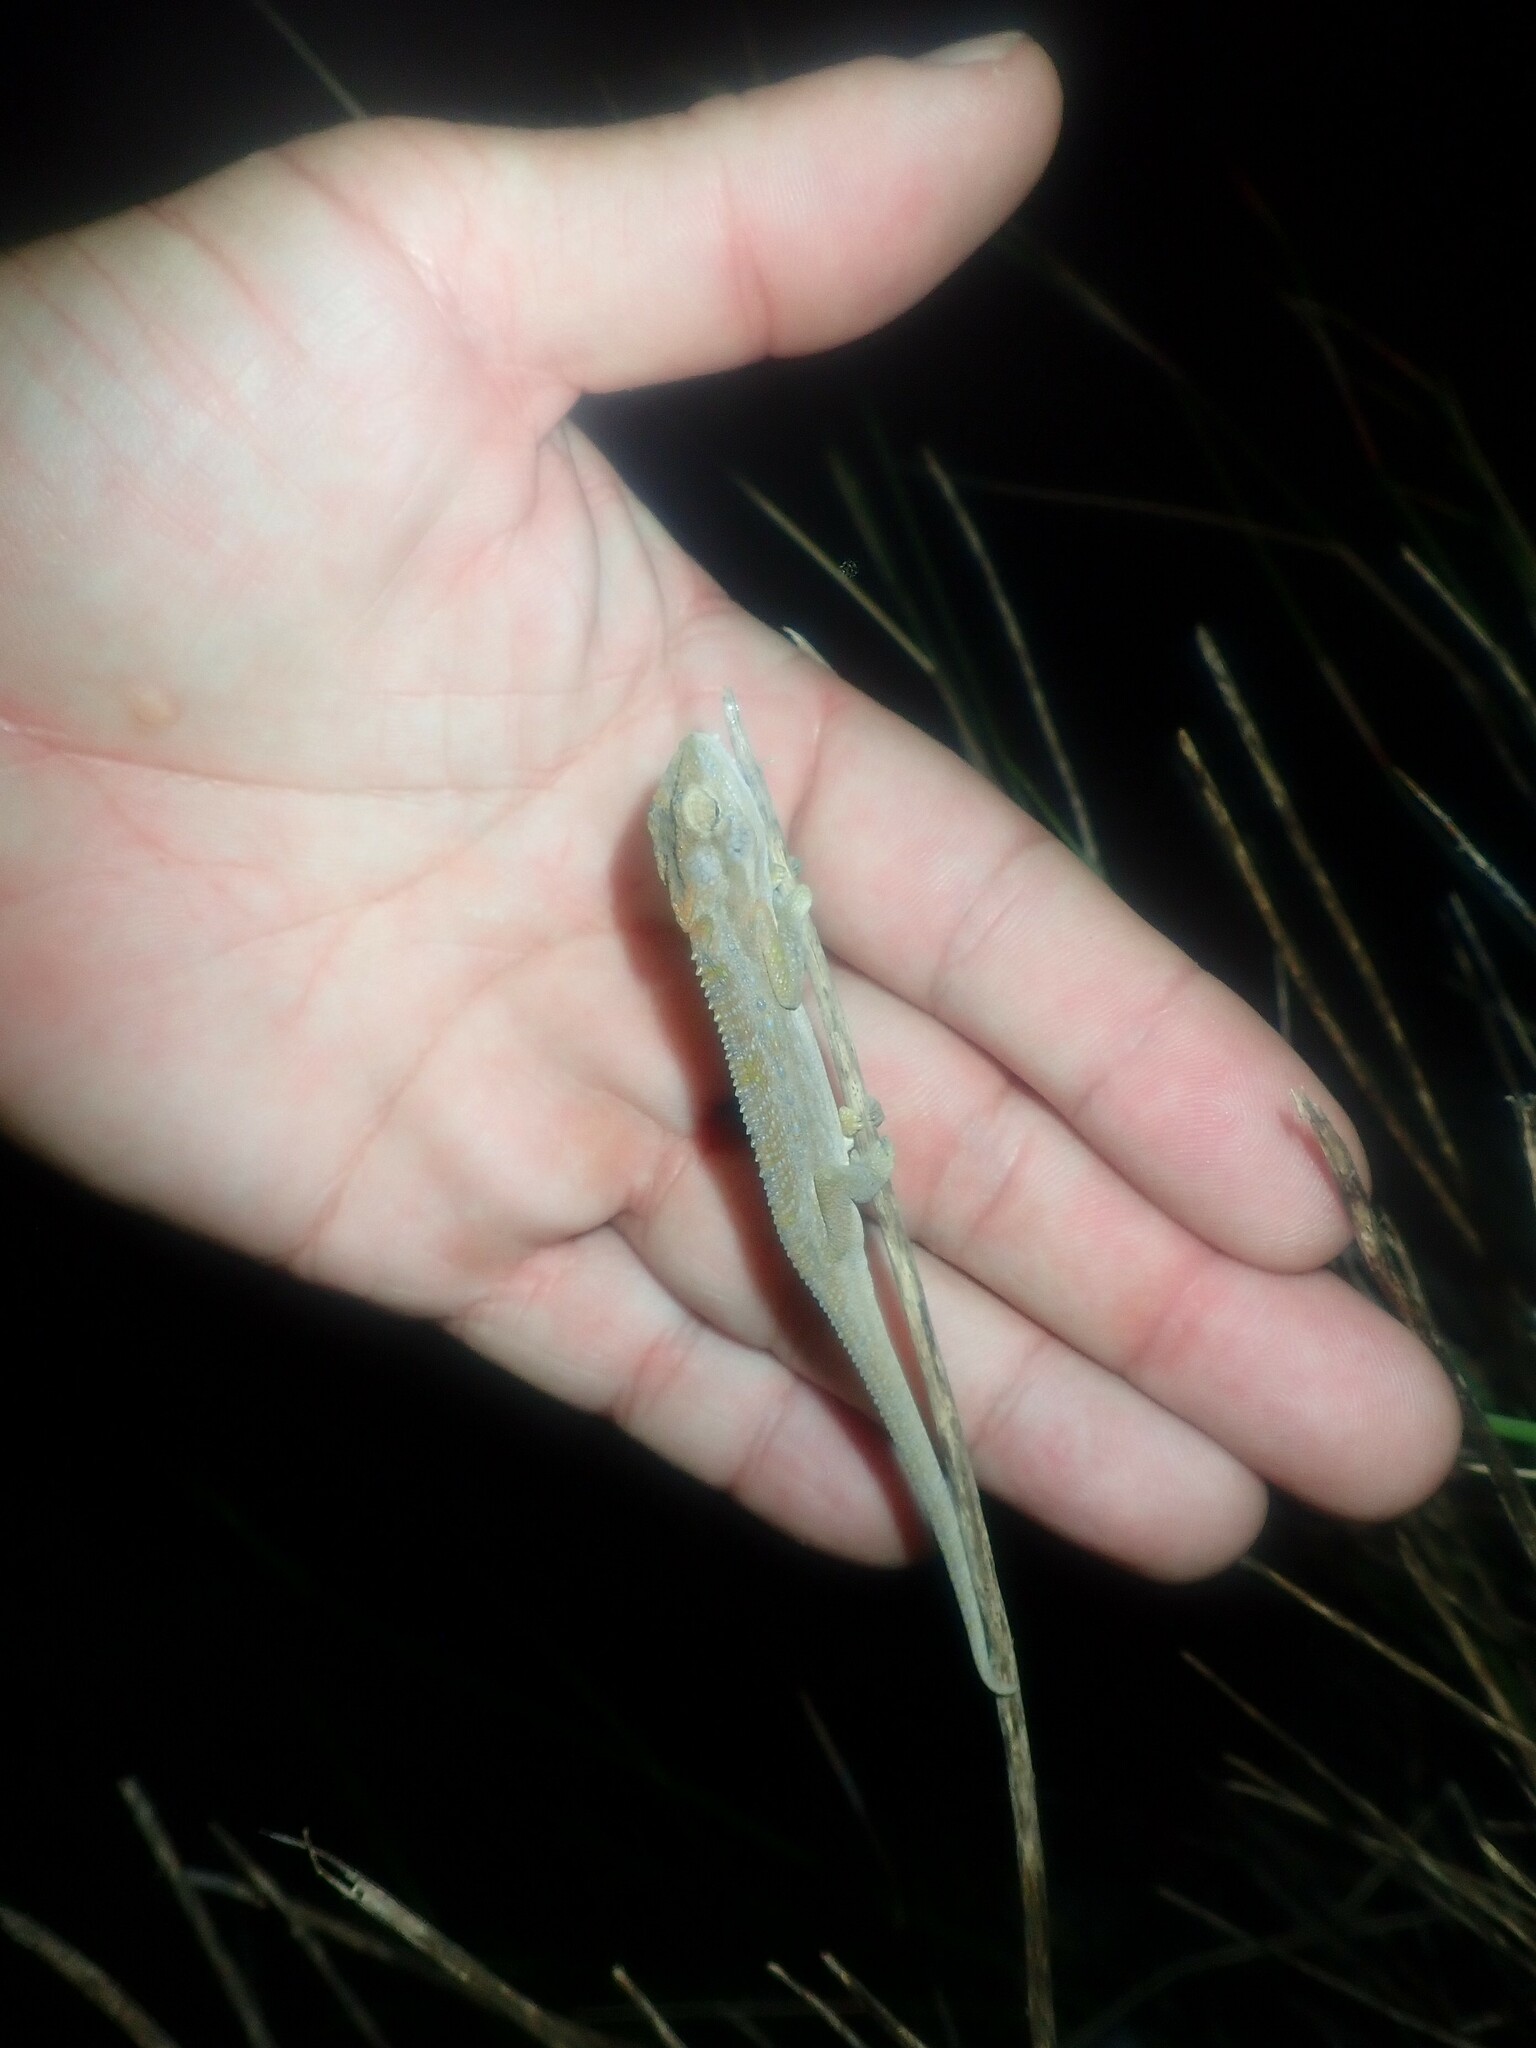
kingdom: Animalia
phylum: Chordata
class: Squamata
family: Chamaeleonidae
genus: Bradypodion
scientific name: Bradypodion pumilum
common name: Cape dwarf chameleon
